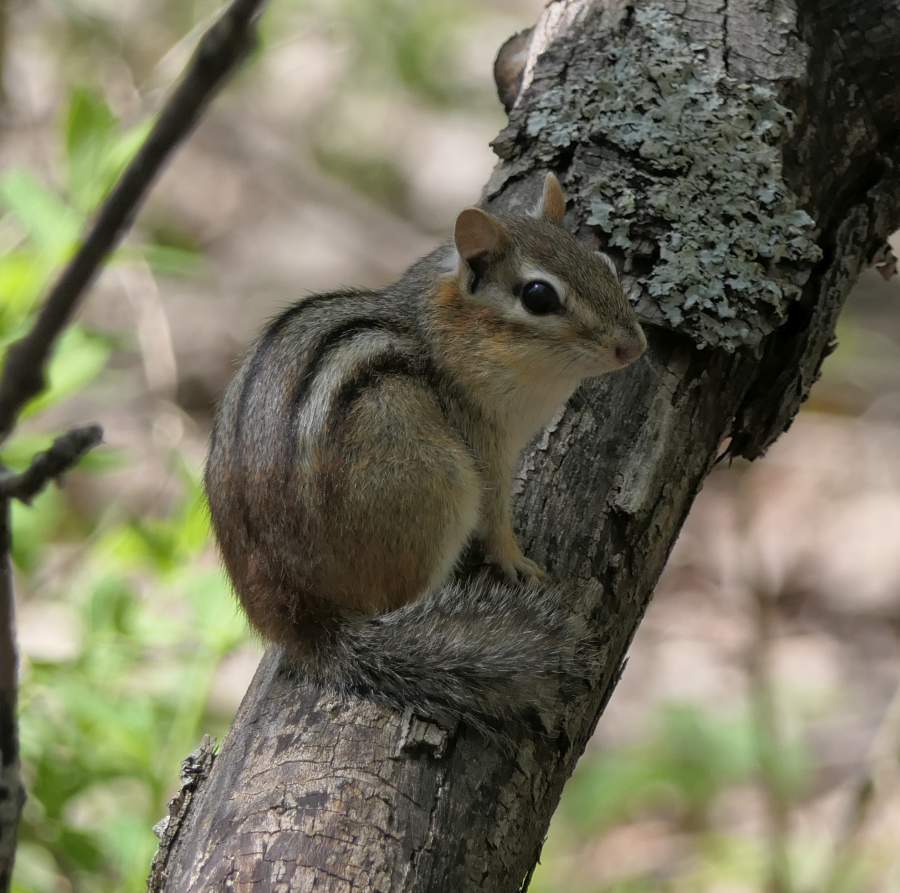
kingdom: Animalia
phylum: Chordata
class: Mammalia
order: Rodentia
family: Sciuridae
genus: Tamias
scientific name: Tamias striatus
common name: Eastern chipmunk
